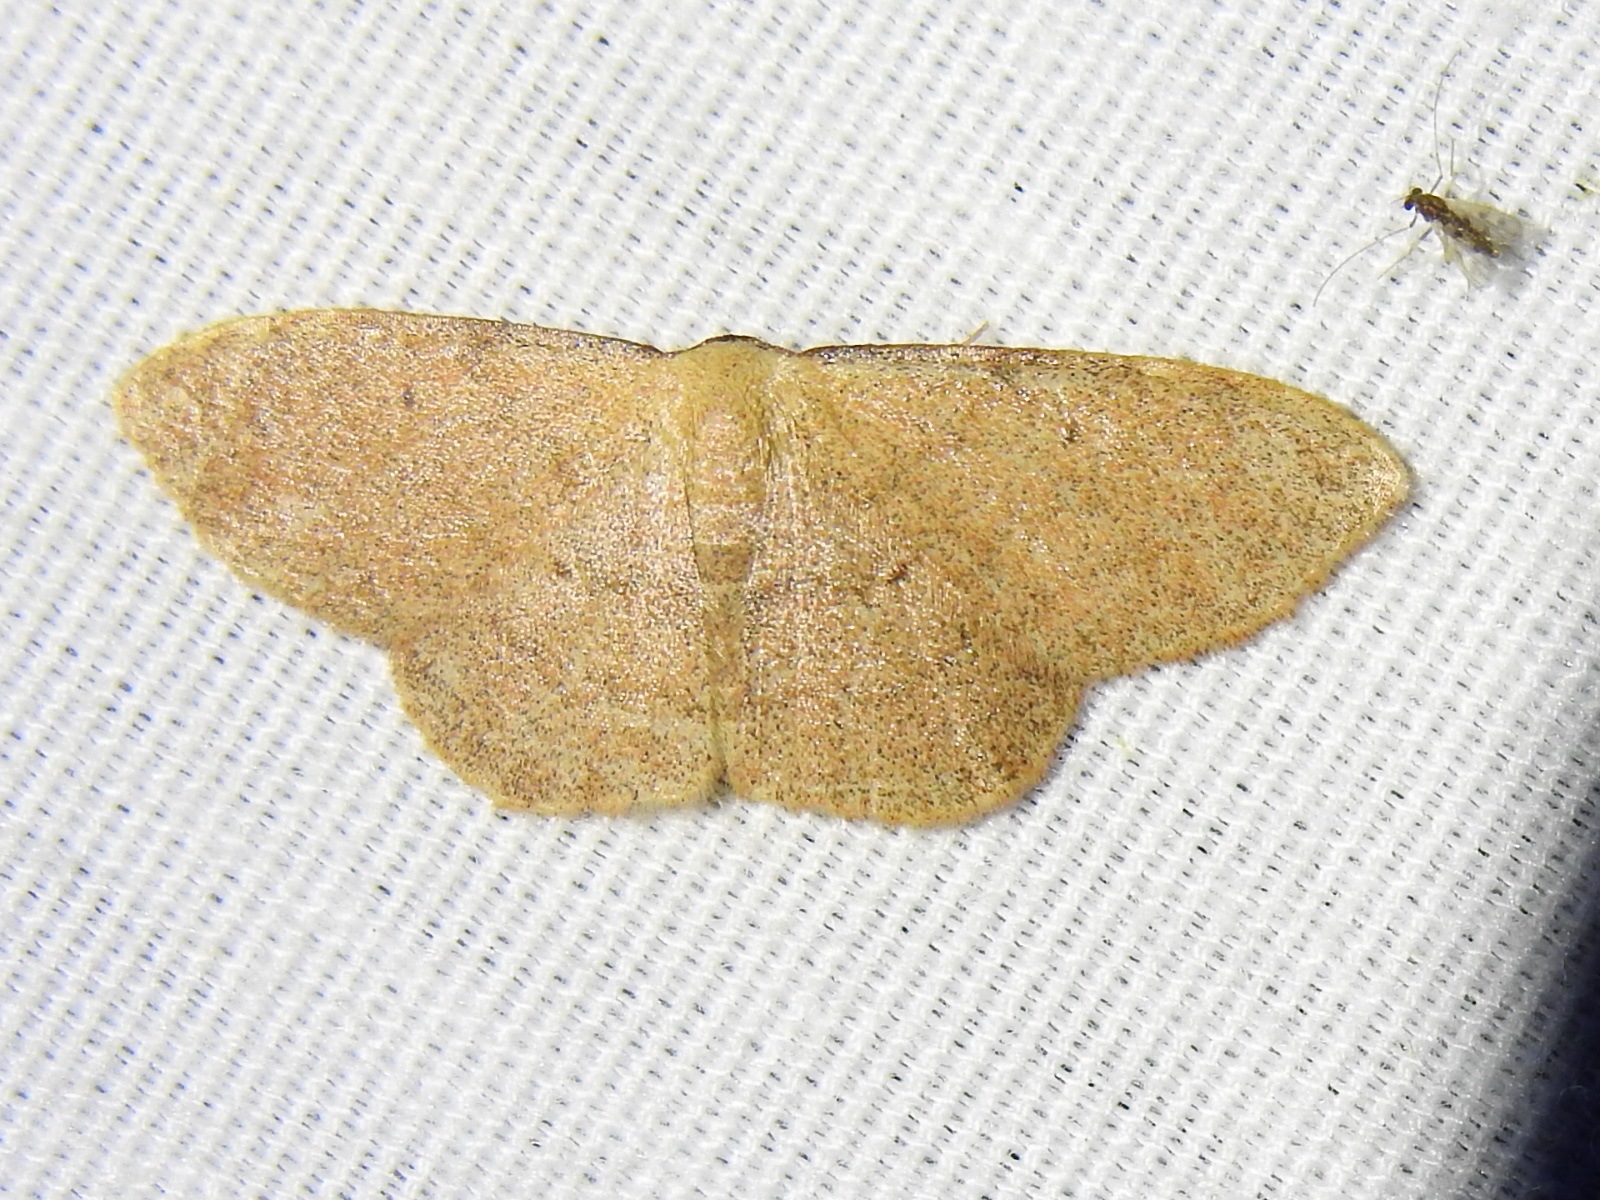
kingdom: Animalia
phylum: Arthropoda
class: Insecta
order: Lepidoptera
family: Geometridae
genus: Pleuroprucha
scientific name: Pleuroprucha insulsaria
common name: Common tan wave
